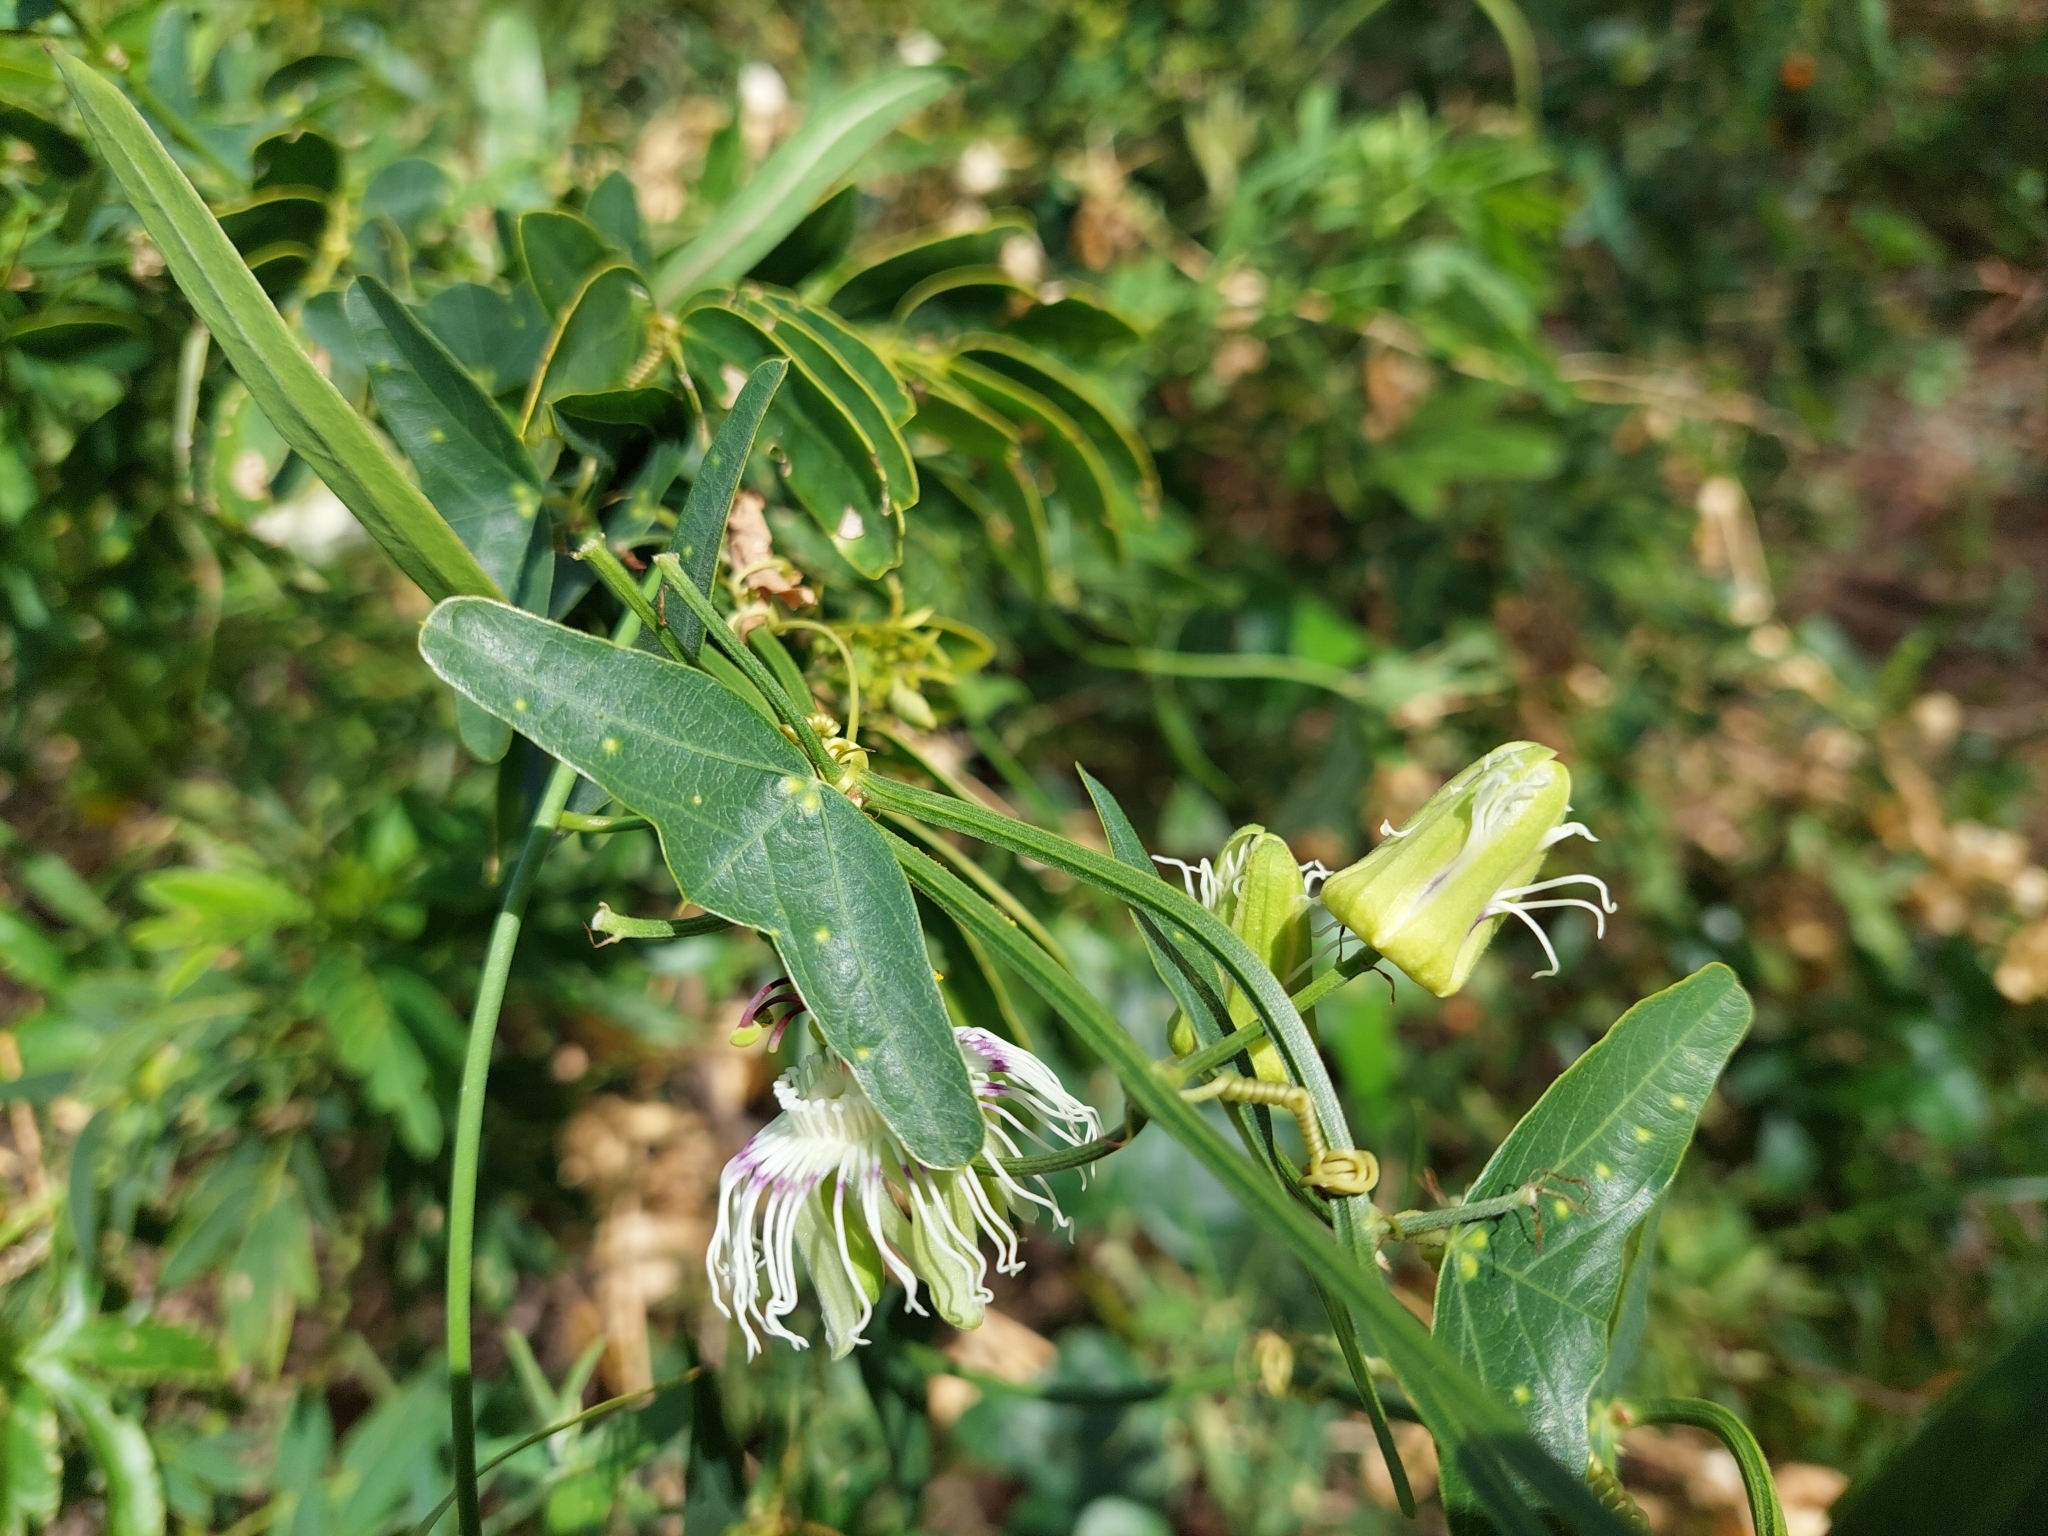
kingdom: Plantae
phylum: Tracheophyta
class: Magnoliopsida
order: Malpighiales
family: Passifloraceae
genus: Passiflora
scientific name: Passiflora misera
